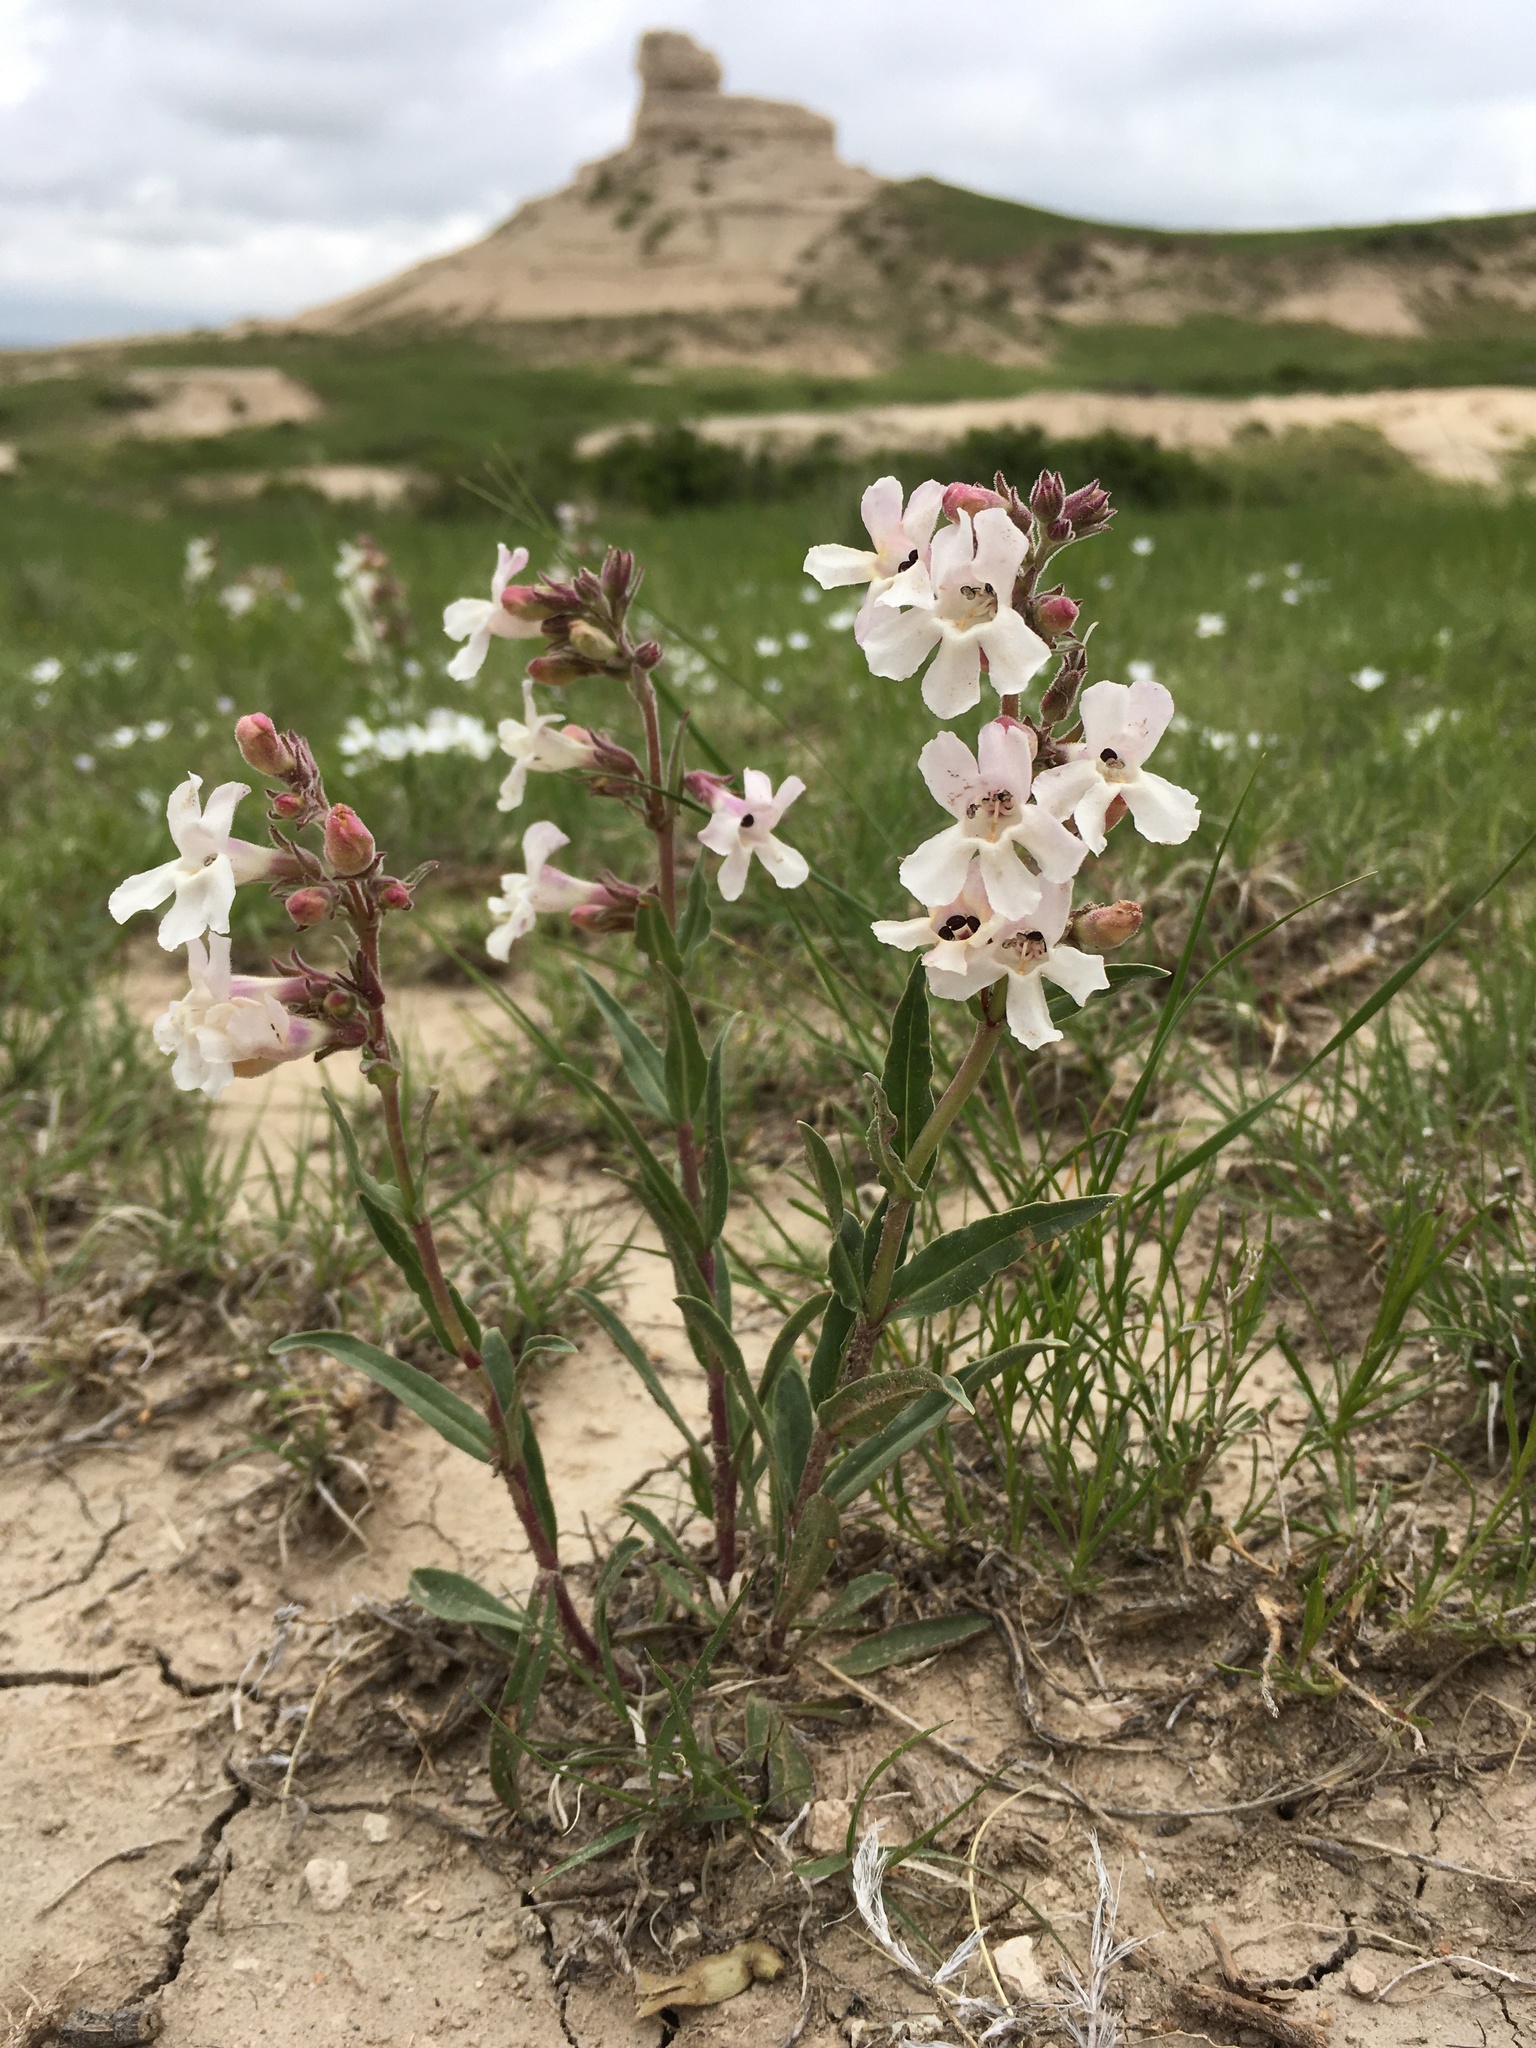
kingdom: Plantae
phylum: Tracheophyta
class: Magnoliopsida
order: Lamiales
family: Plantaginaceae
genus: Penstemon
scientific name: Penstemon albidus
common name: White beardtongue
